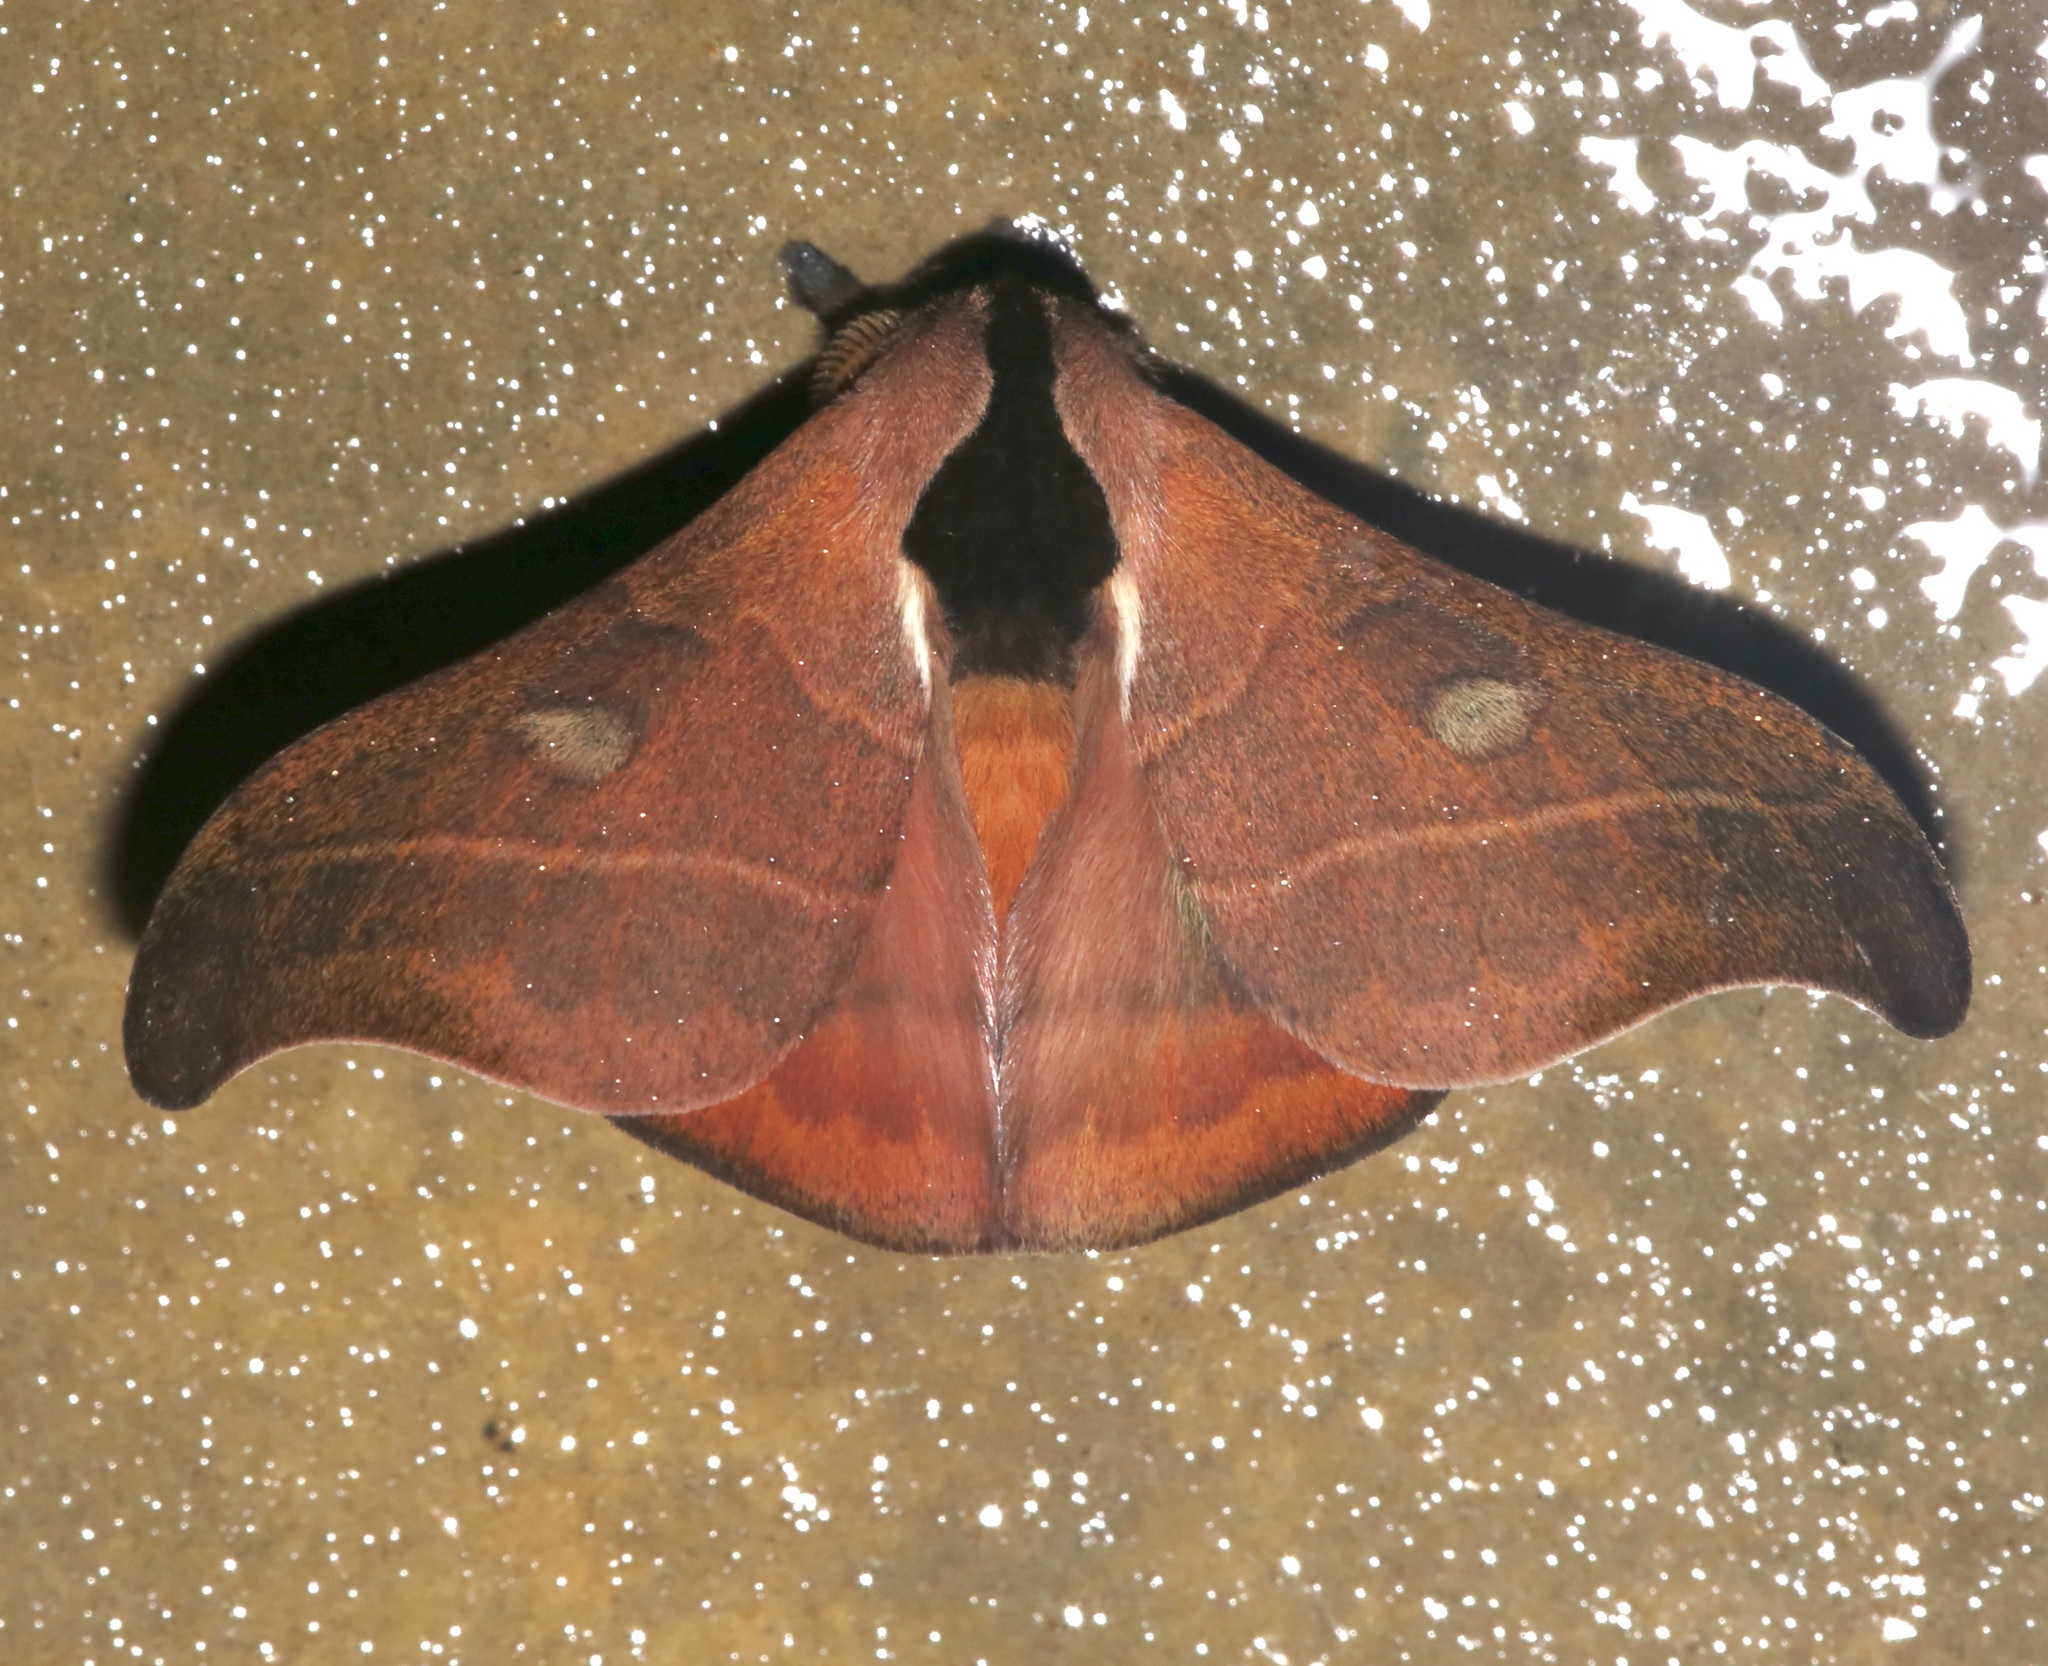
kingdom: Animalia
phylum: Arthropoda
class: Insecta
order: Lepidoptera
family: Saturniidae
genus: Hylesia
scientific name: Hylesia nanus
